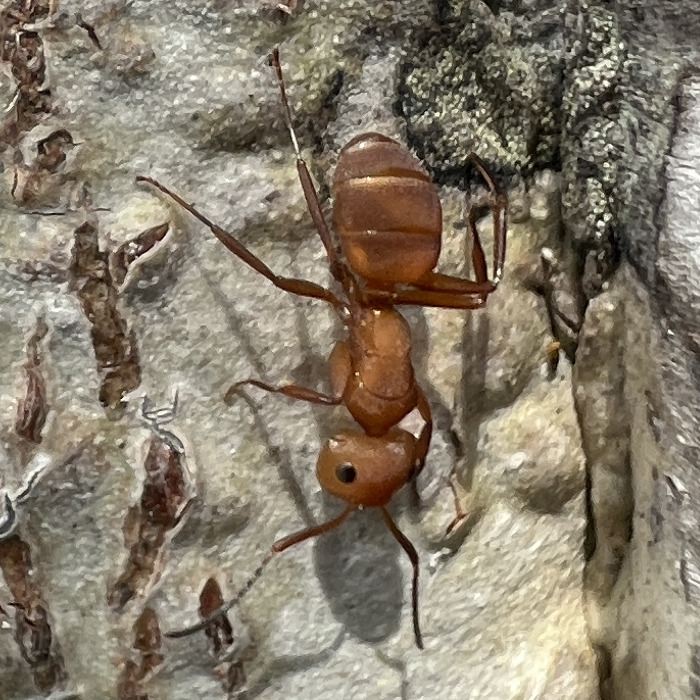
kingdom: Animalia
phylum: Arthropoda
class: Insecta
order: Hymenoptera
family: Formicidae
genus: Camponotus
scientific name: Camponotus rectangularis
